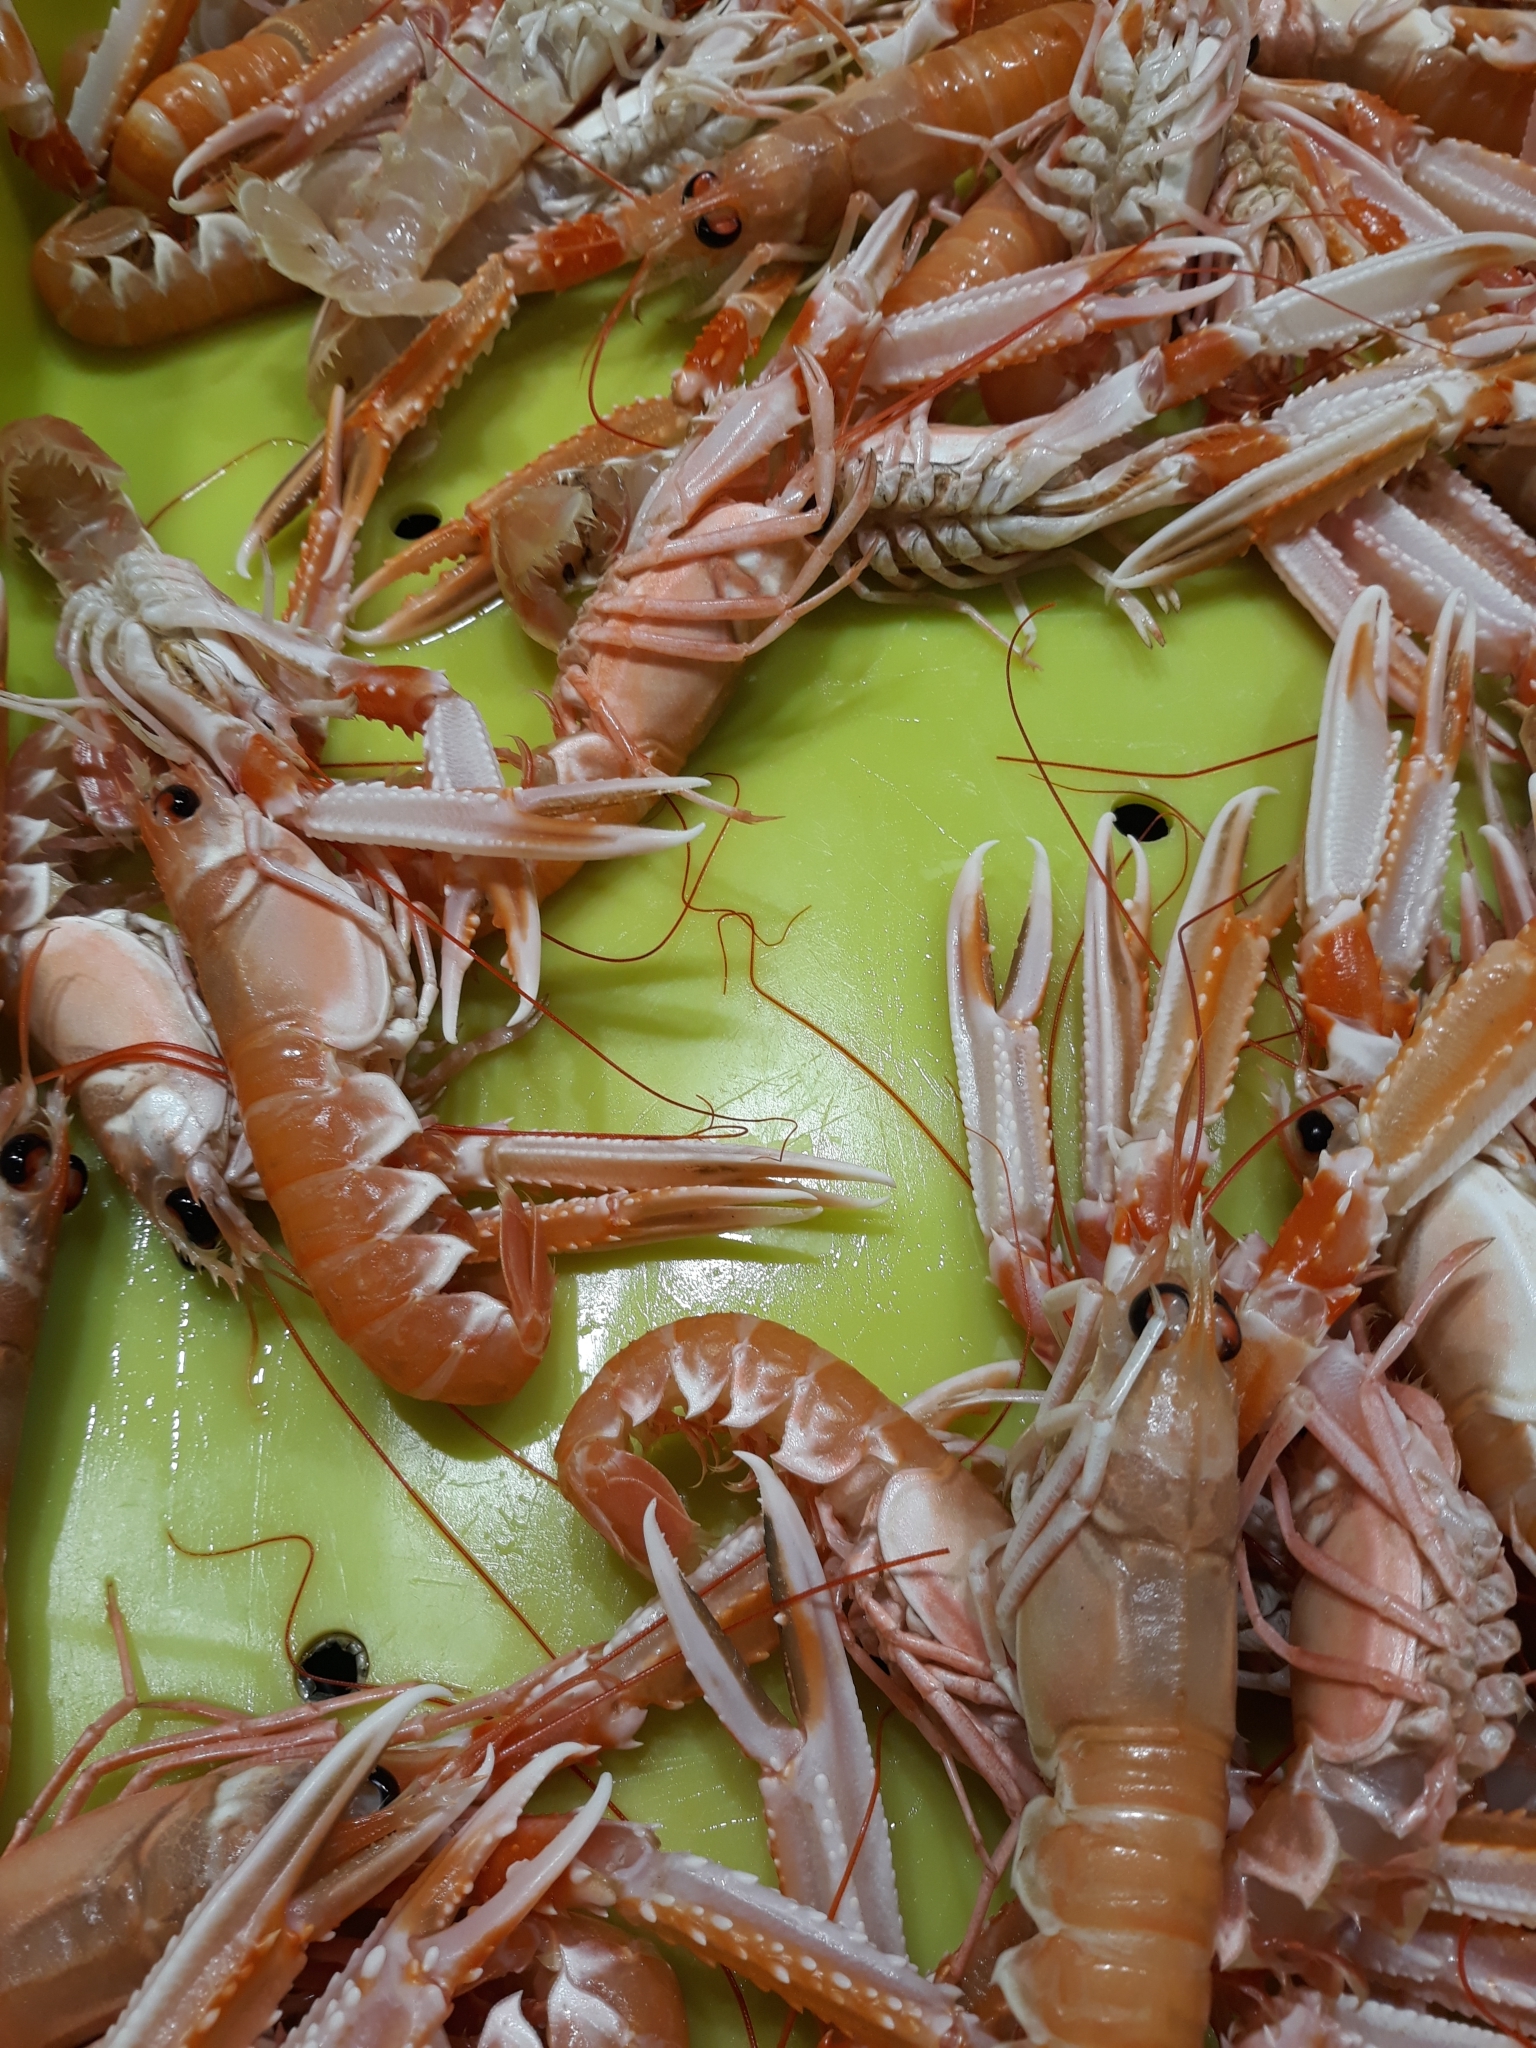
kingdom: Animalia
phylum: Arthropoda
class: Malacostraca
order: Decapoda
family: Nephropidae
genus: Nephrops
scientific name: Nephrops norvegicus
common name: Norway lobster
